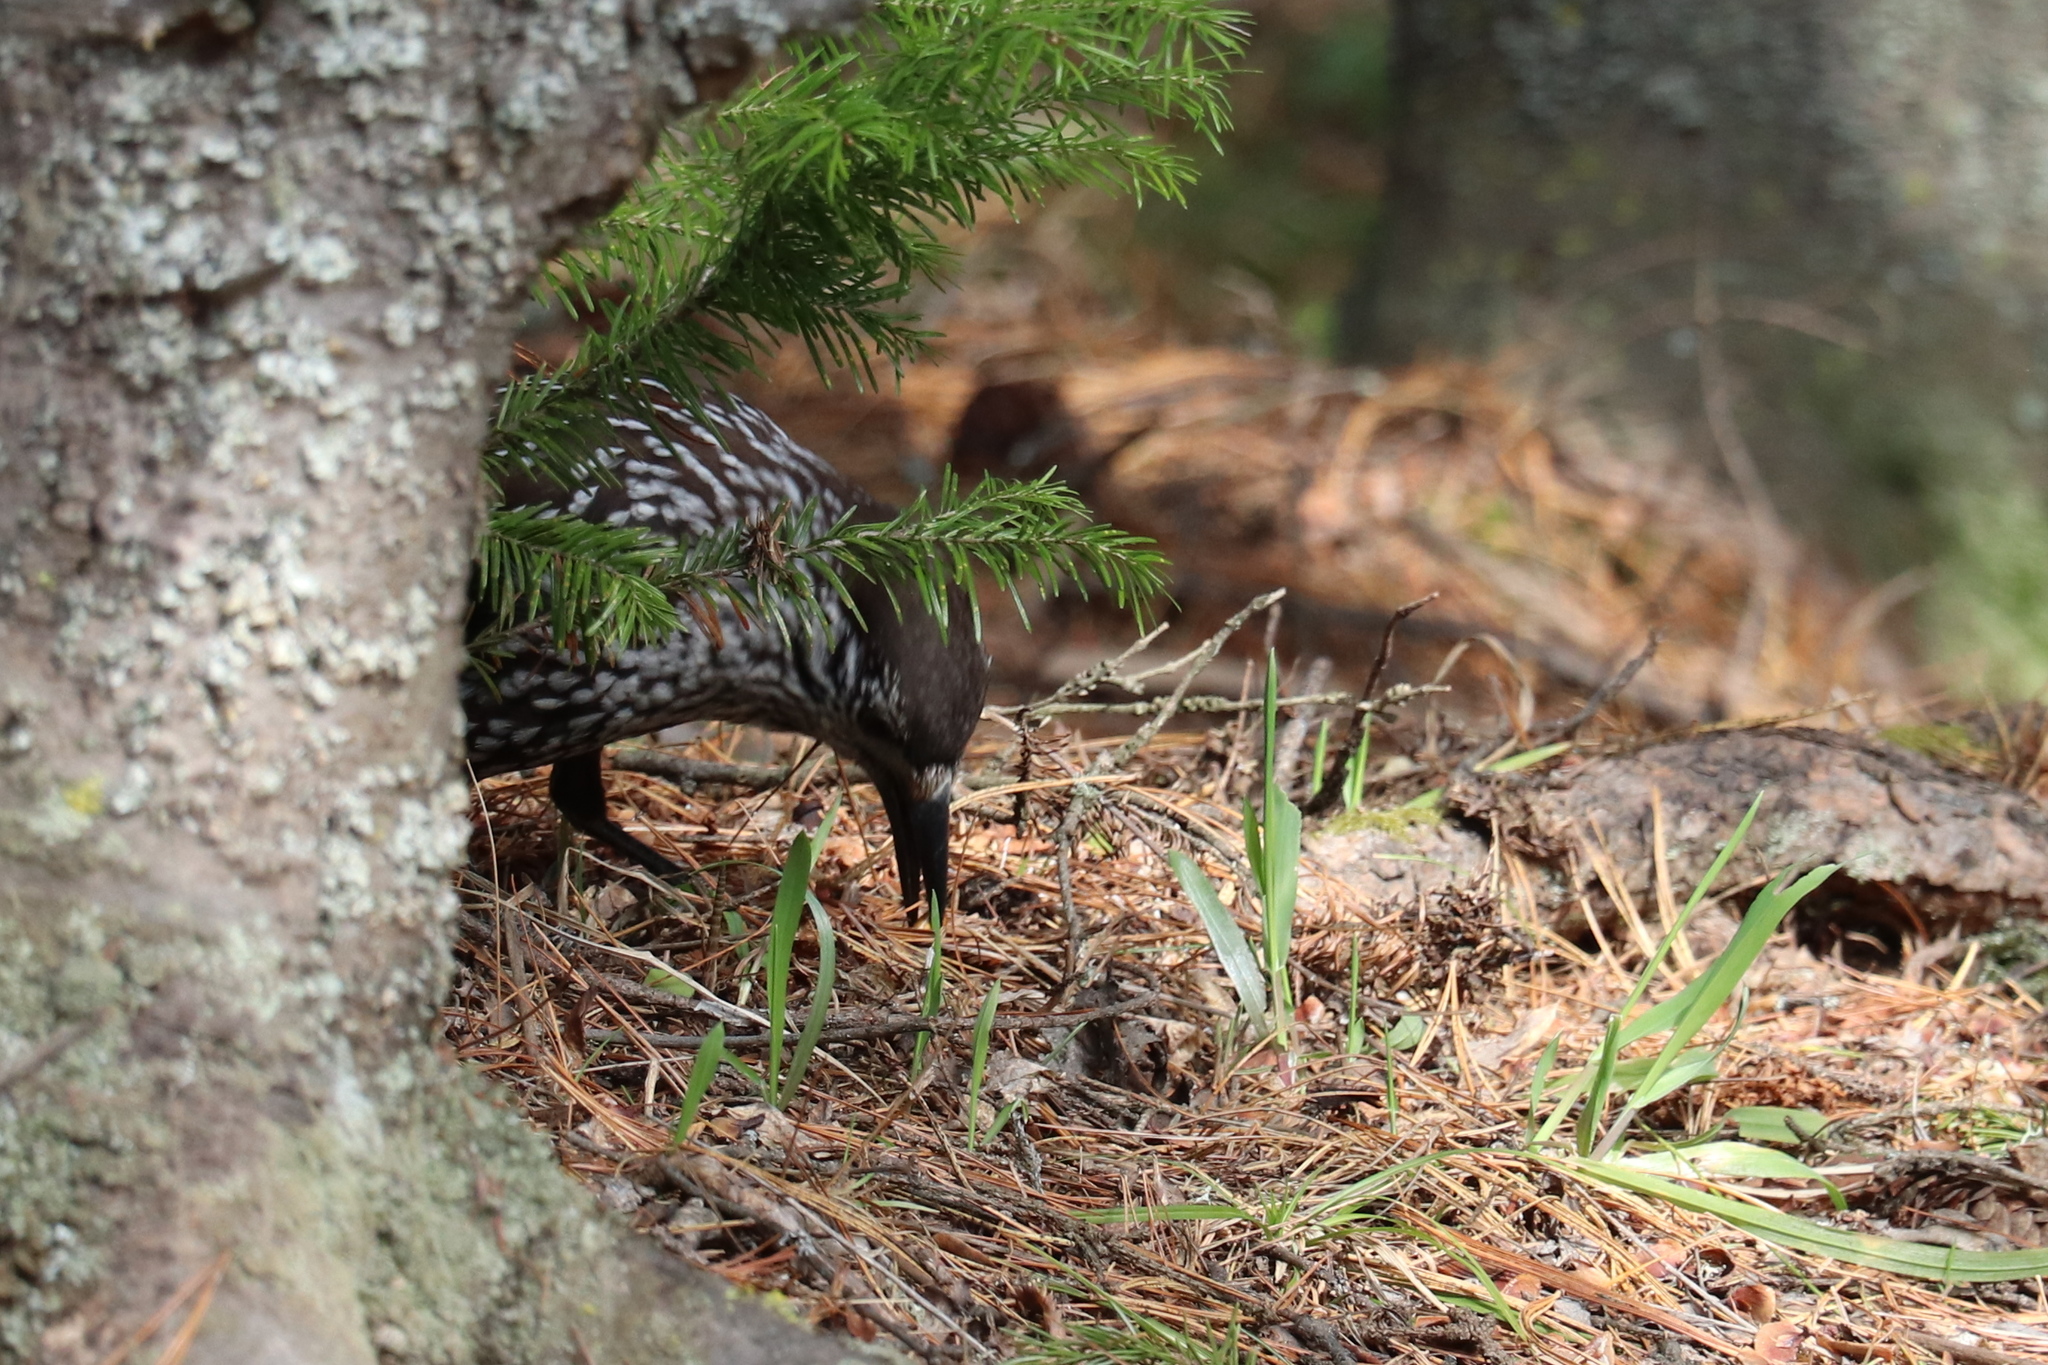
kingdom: Animalia
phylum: Chordata
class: Aves
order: Passeriformes
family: Corvidae
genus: Nucifraga
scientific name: Nucifraga caryocatactes
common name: Spotted nutcracker
